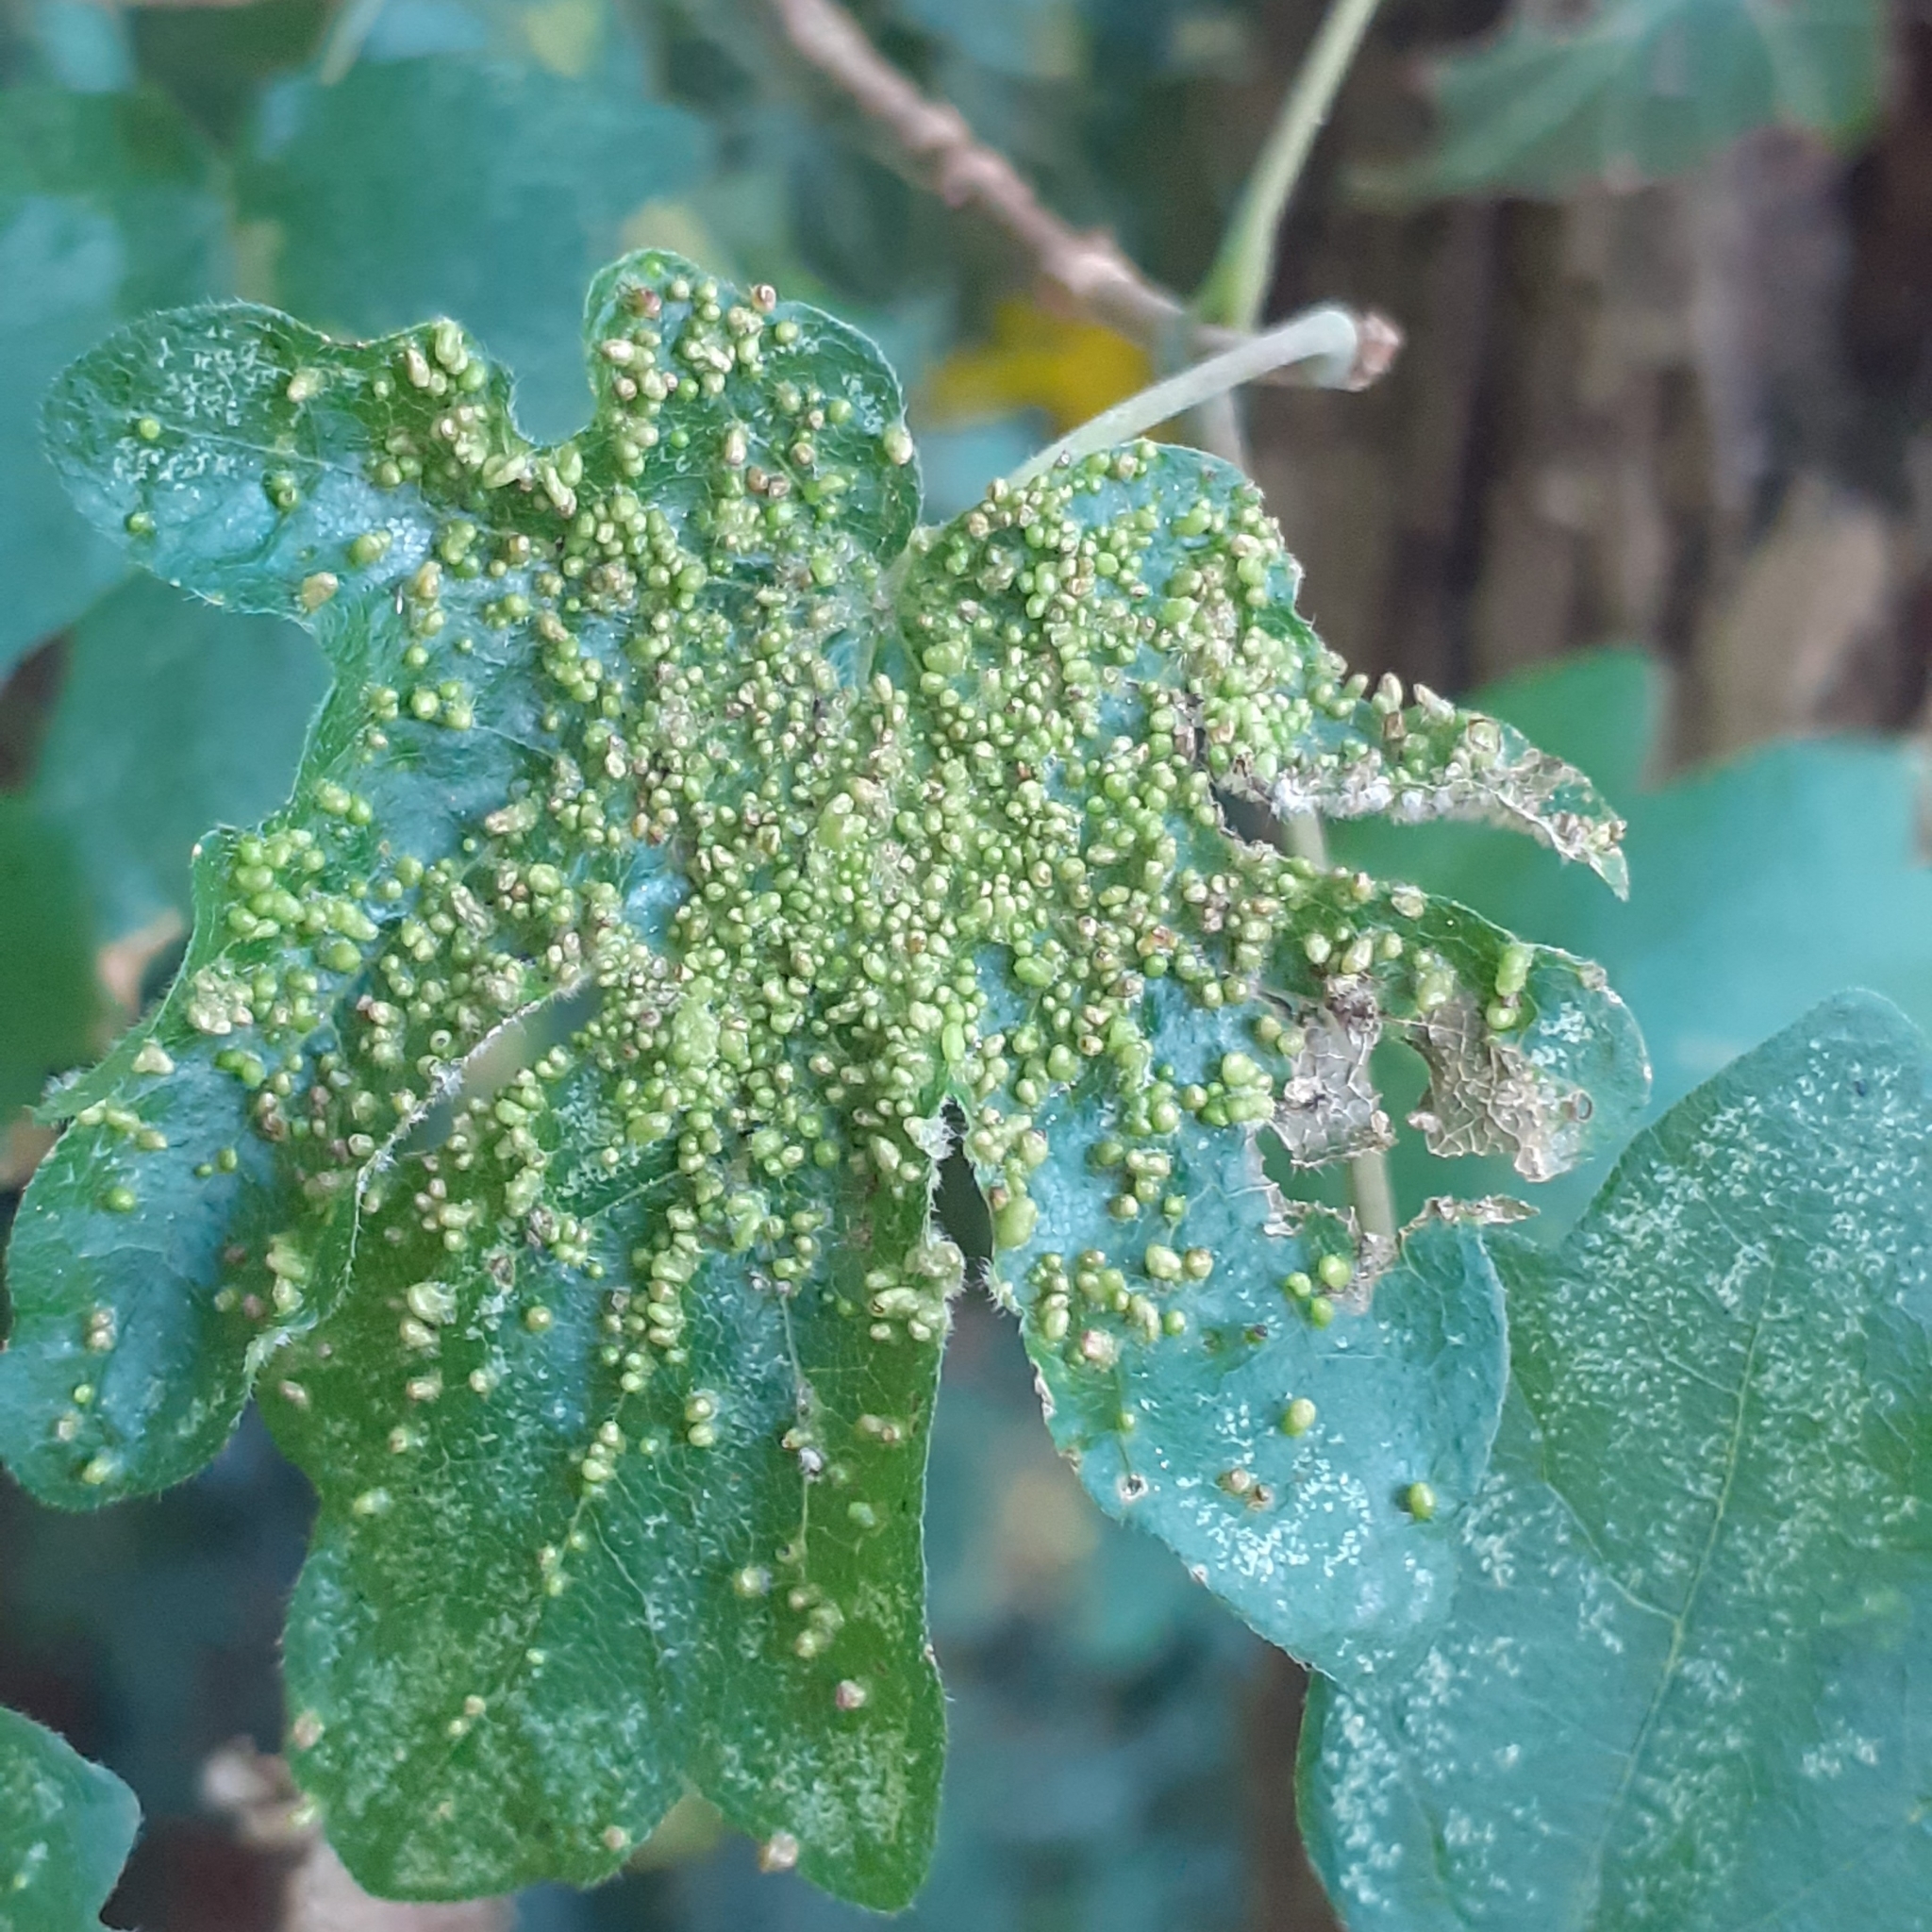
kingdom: Animalia
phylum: Arthropoda
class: Arachnida
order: Trombidiformes
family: Eriophyidae
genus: Aceria
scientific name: Aceria myriadeum
